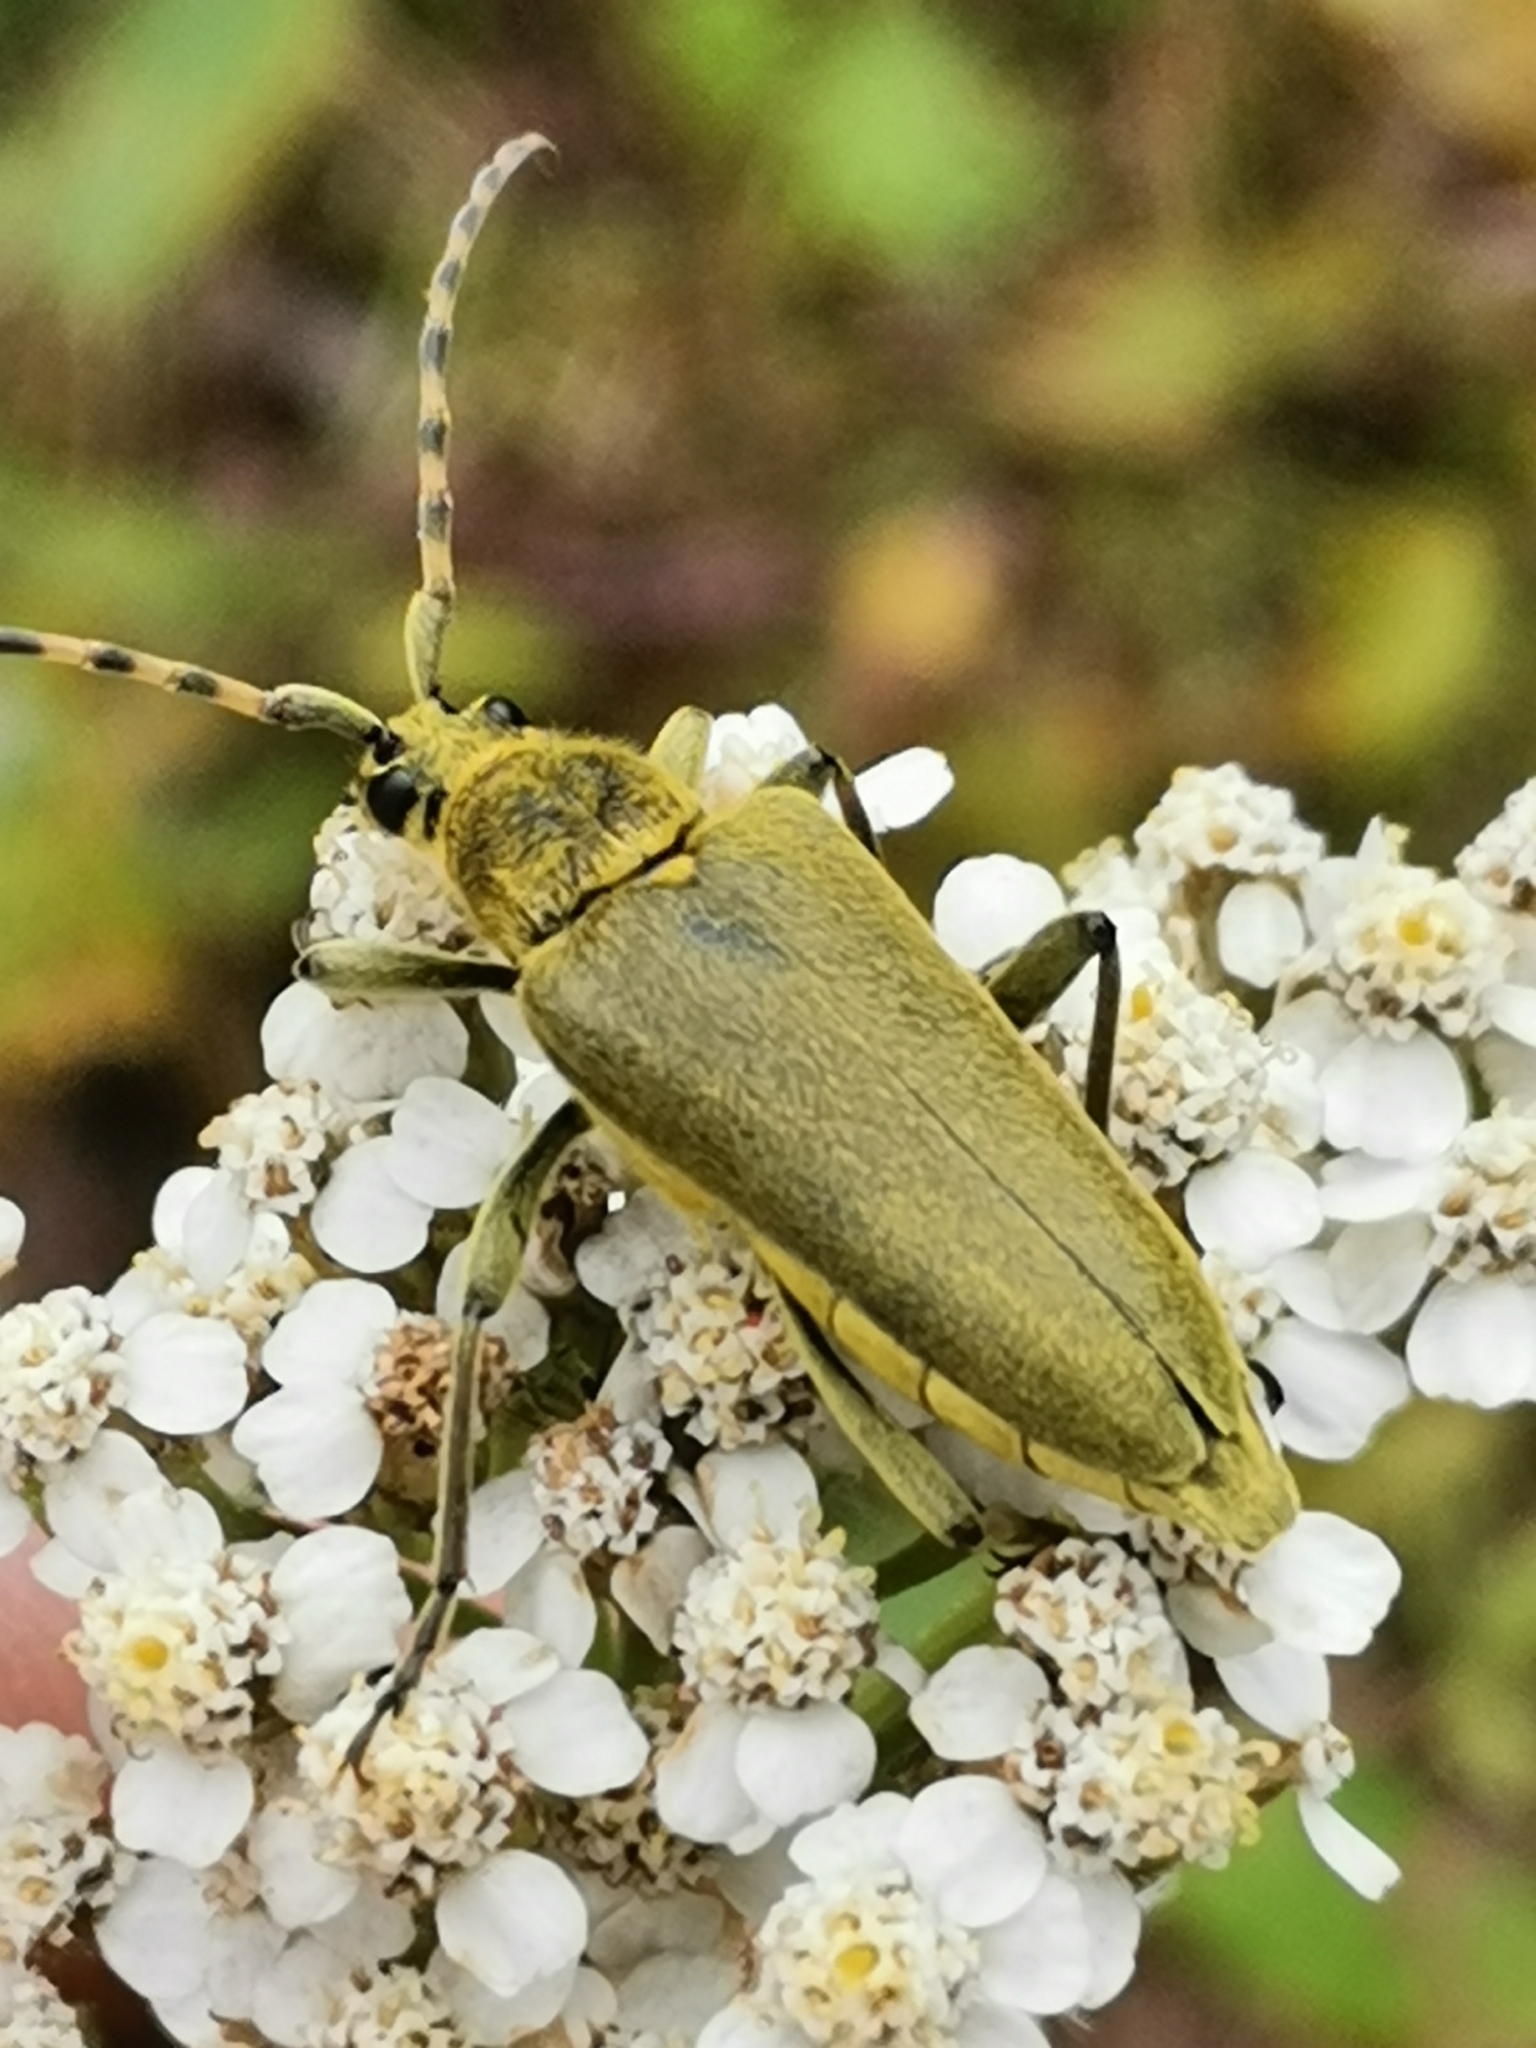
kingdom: Animalia
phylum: Arthropoda
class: Insecta
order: Coleoptera
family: Cerambycidae
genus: Lepturobosca
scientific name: Lepturobosca virens
